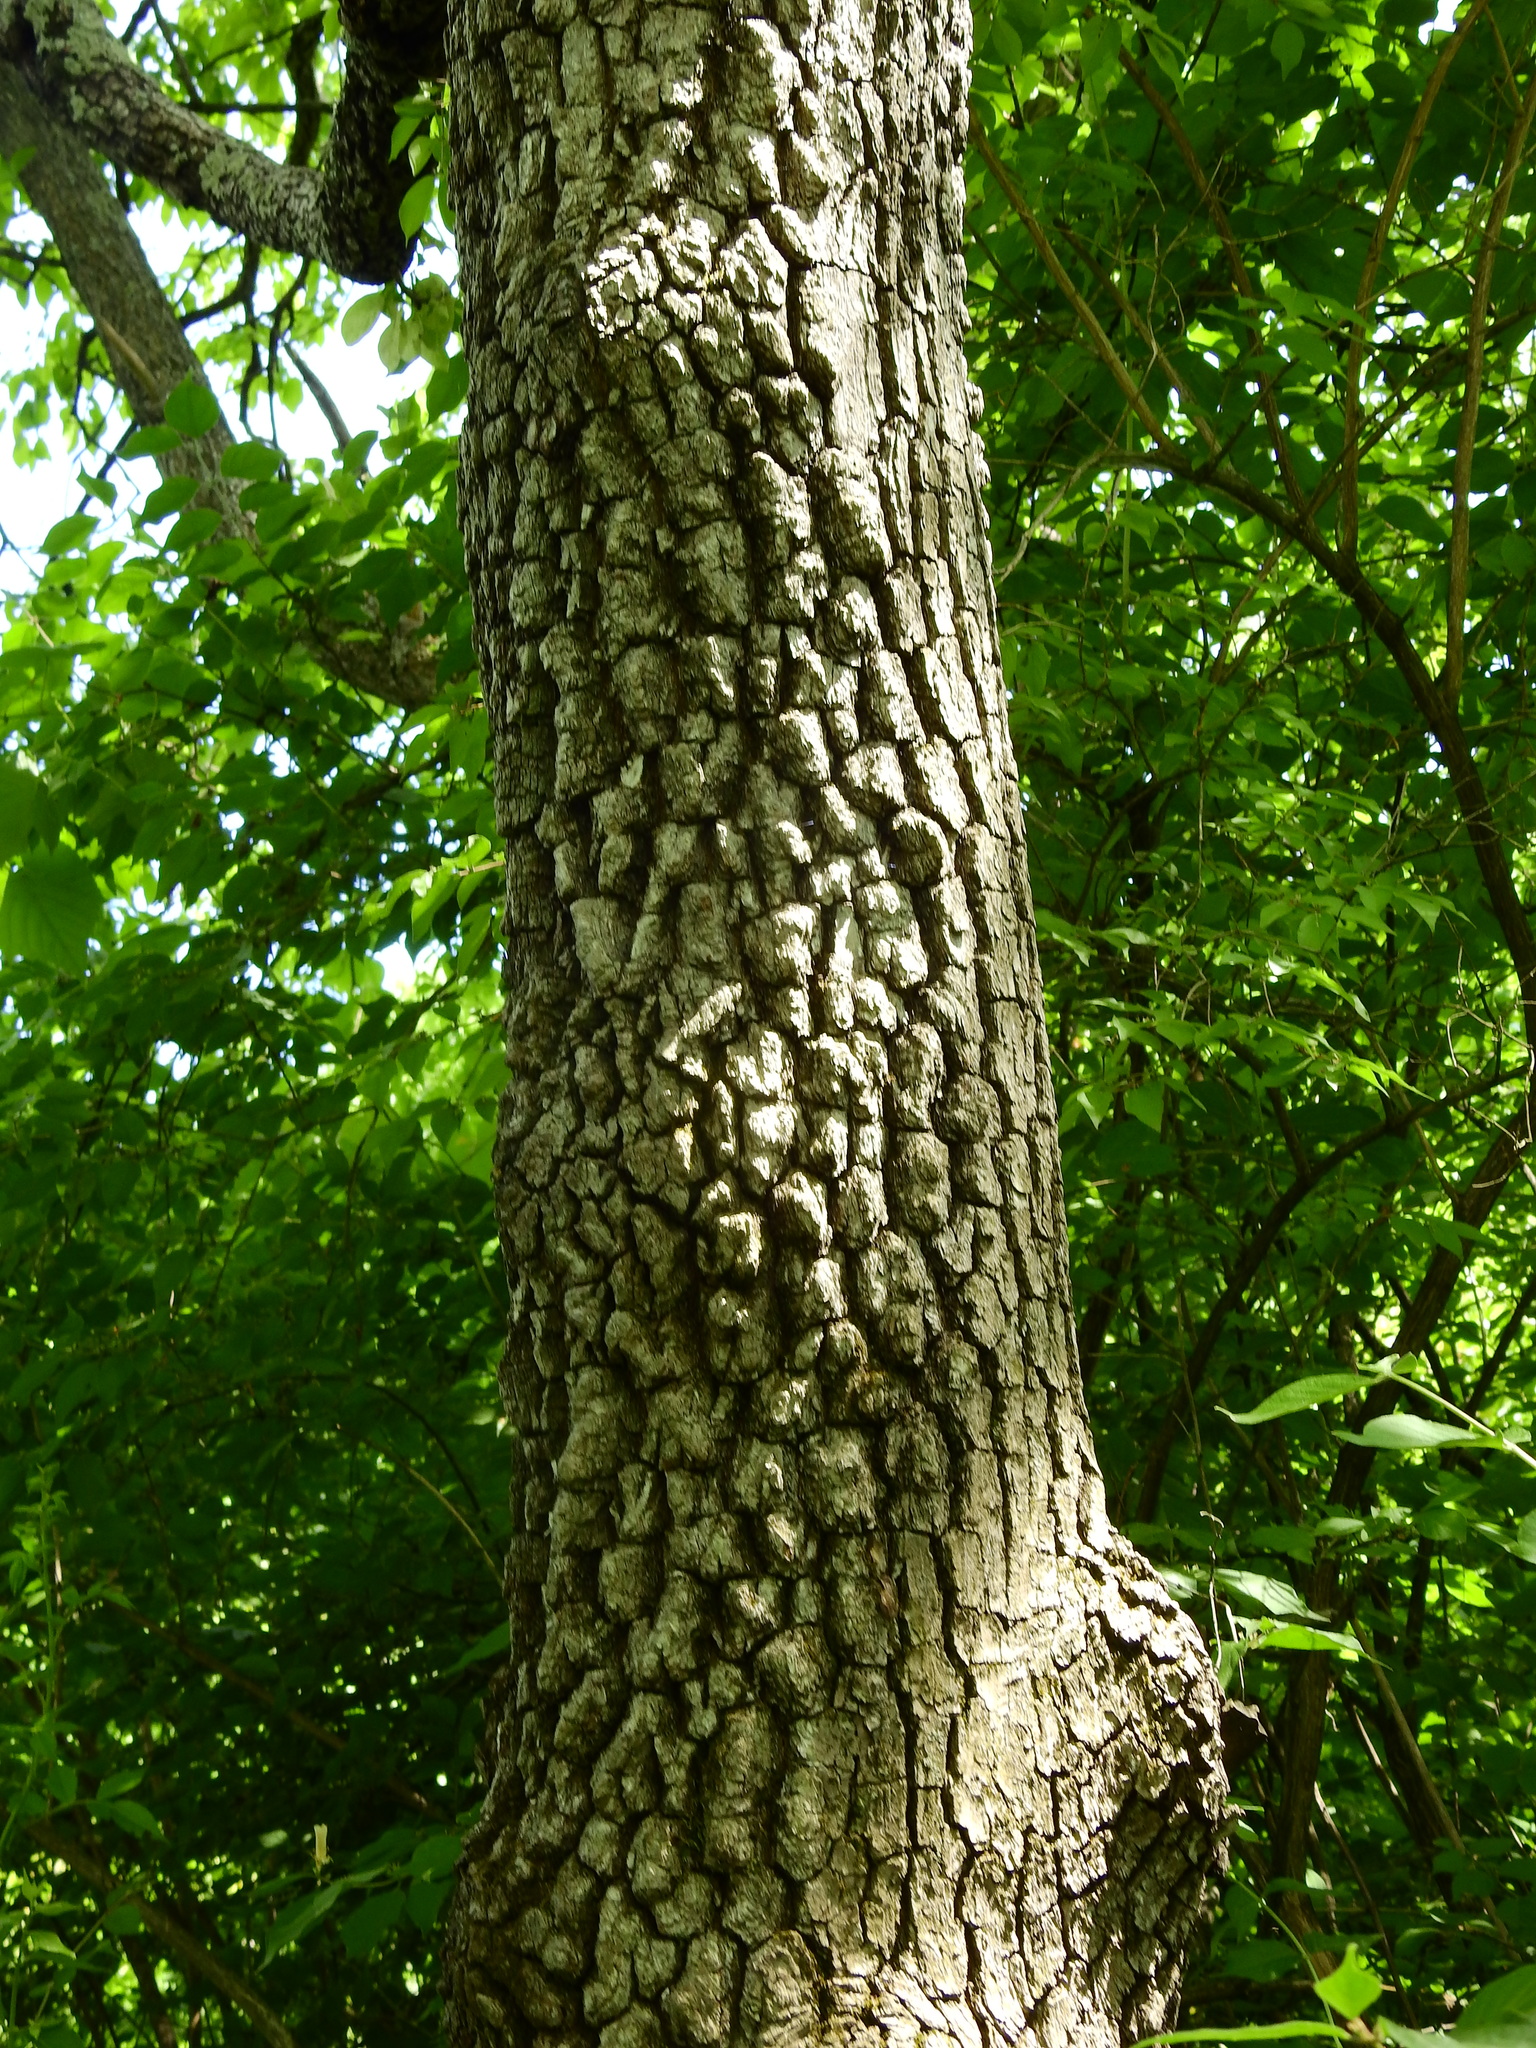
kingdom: Plantae
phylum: Tracheophyta
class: Magnoliopsida
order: Ericales
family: Ebenaceae
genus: Diospyros
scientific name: Diospyros virginiana
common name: Persimmon
